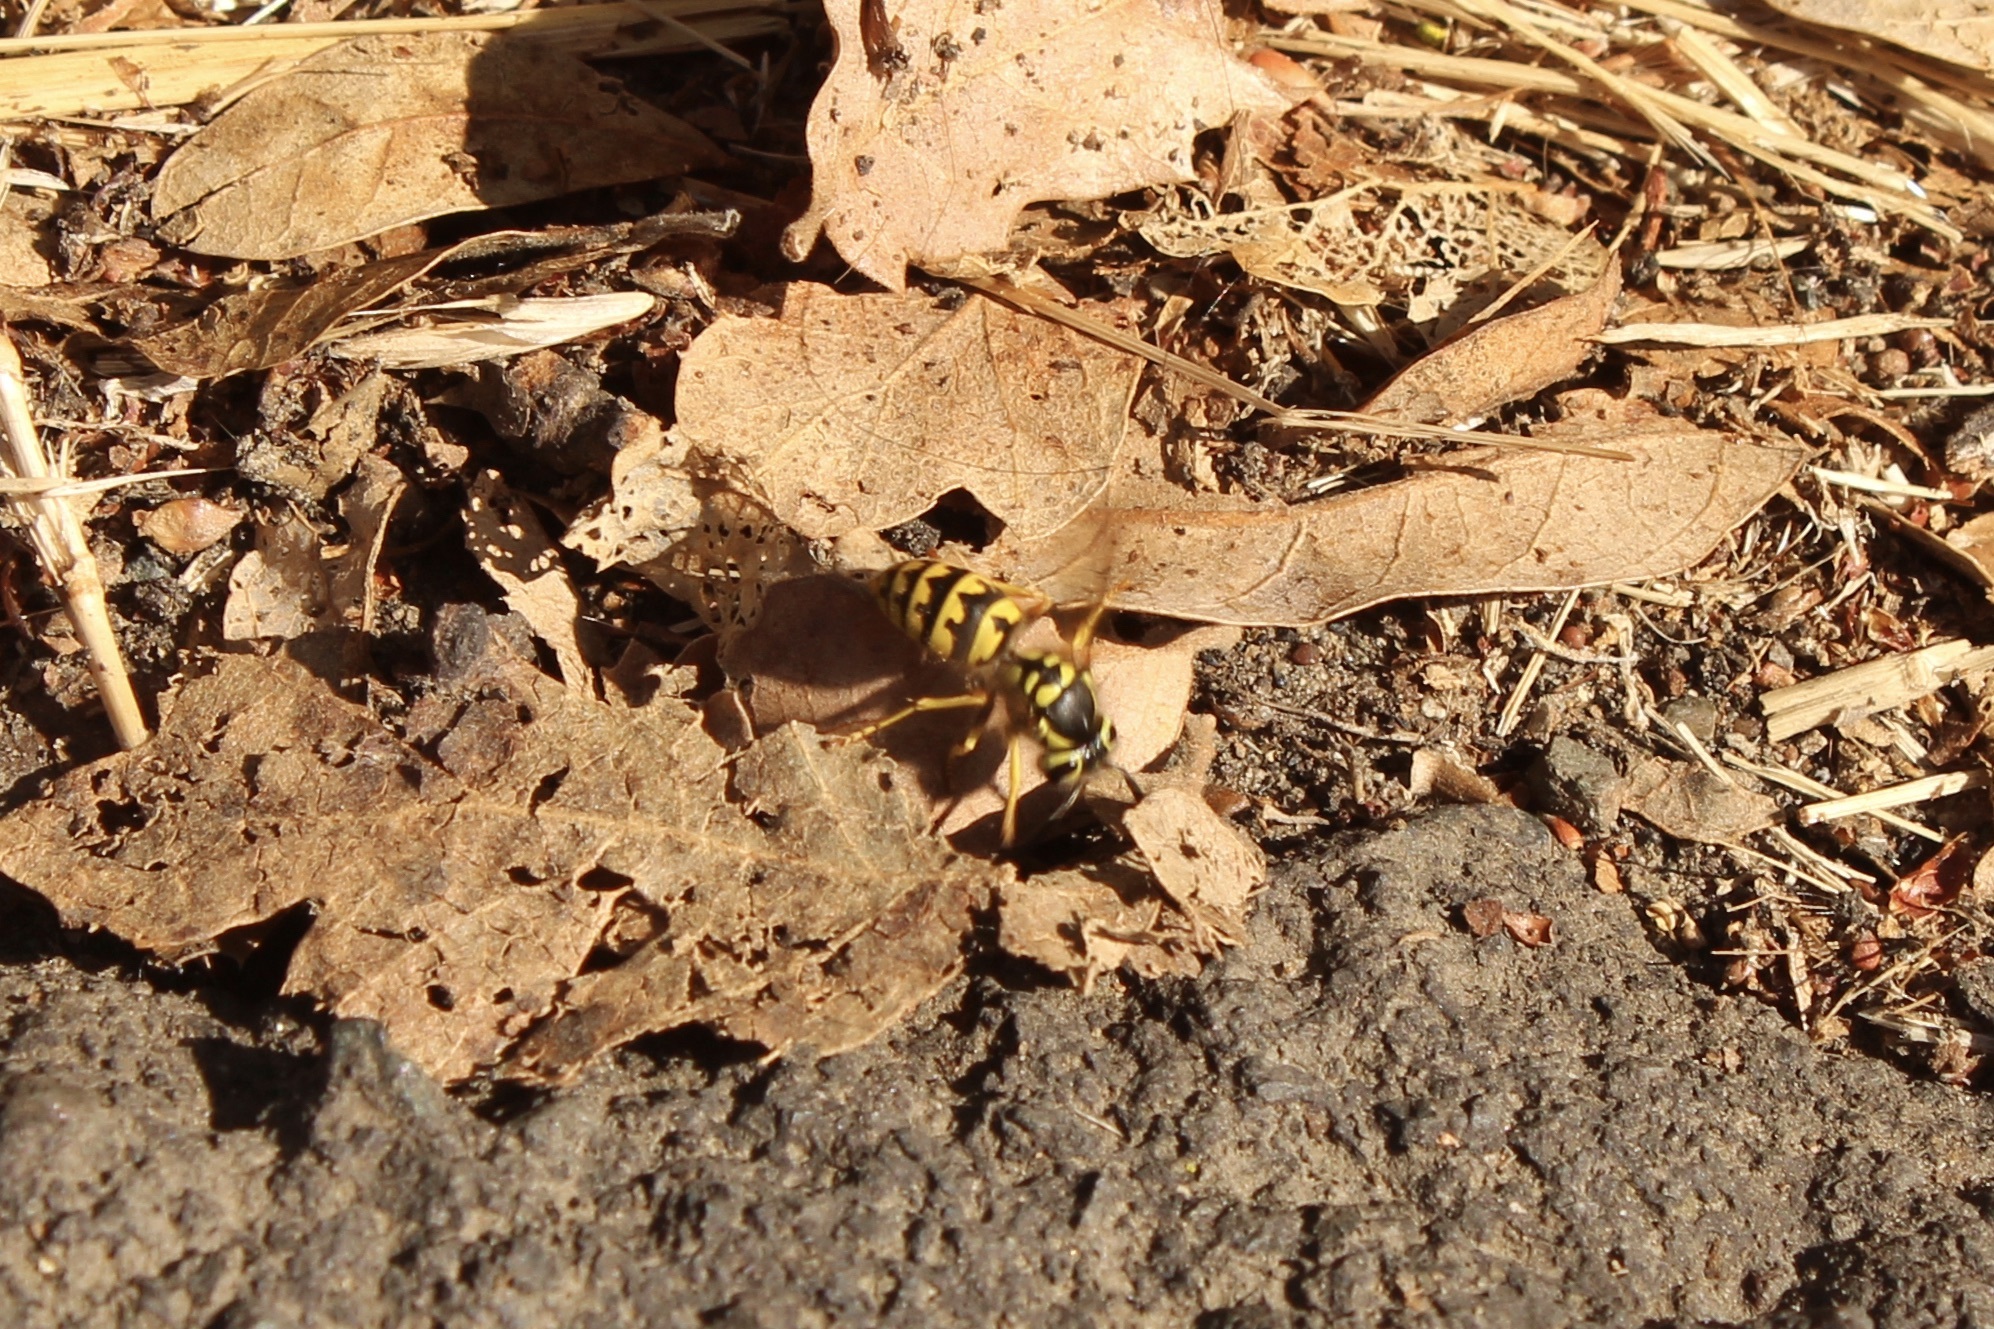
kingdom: Animalia
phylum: Arthropoda
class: Insecta
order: Hymenoptera
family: Vespidae
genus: Vespula
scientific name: Vespula pensylvanica
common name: Western yellowjacket
